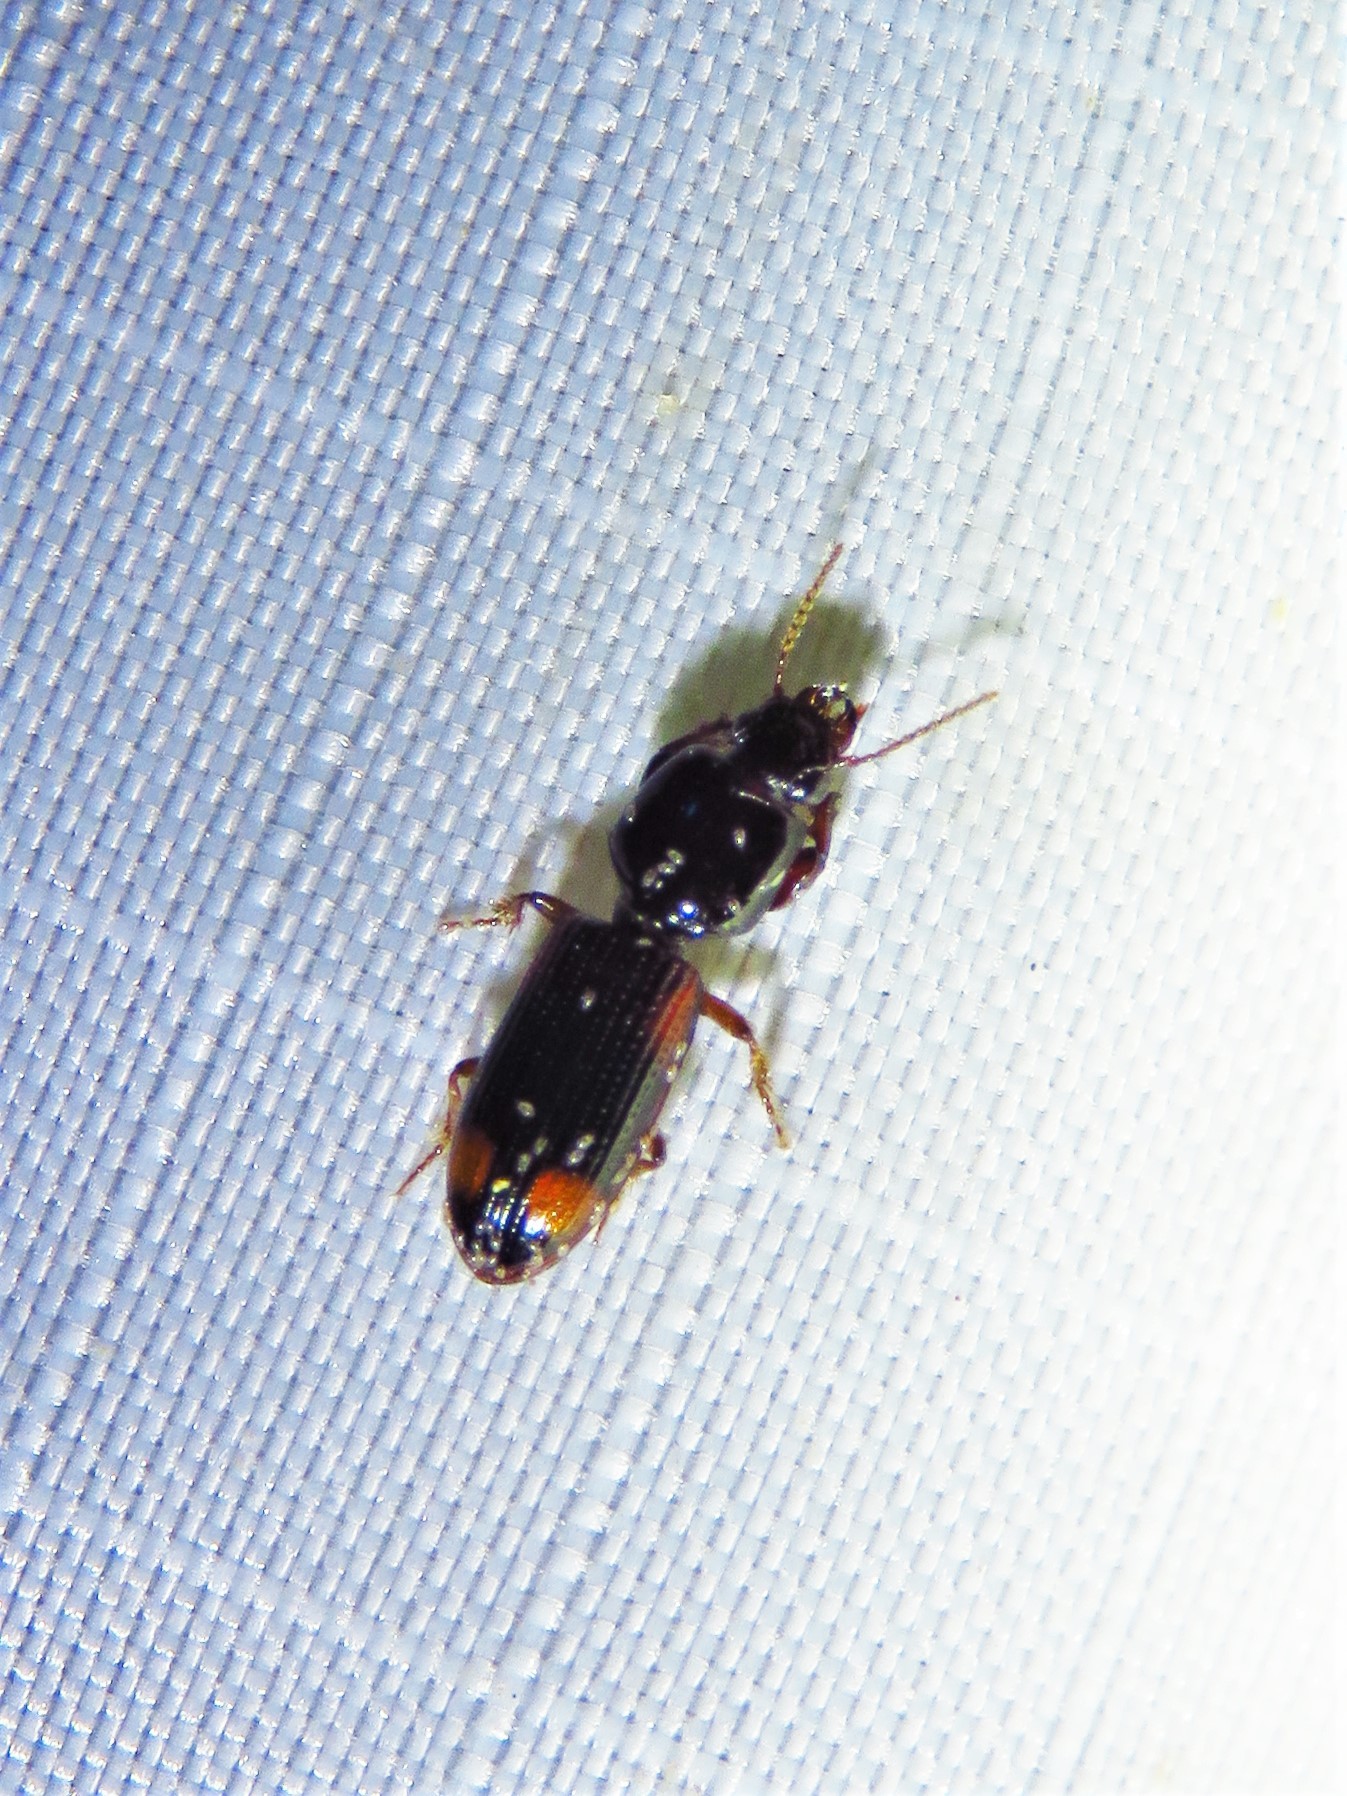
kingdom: Animalia
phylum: Arthropoda
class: Insecta
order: Coleoptera
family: Carabidae
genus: Clivina
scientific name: Clivina bipustulata
